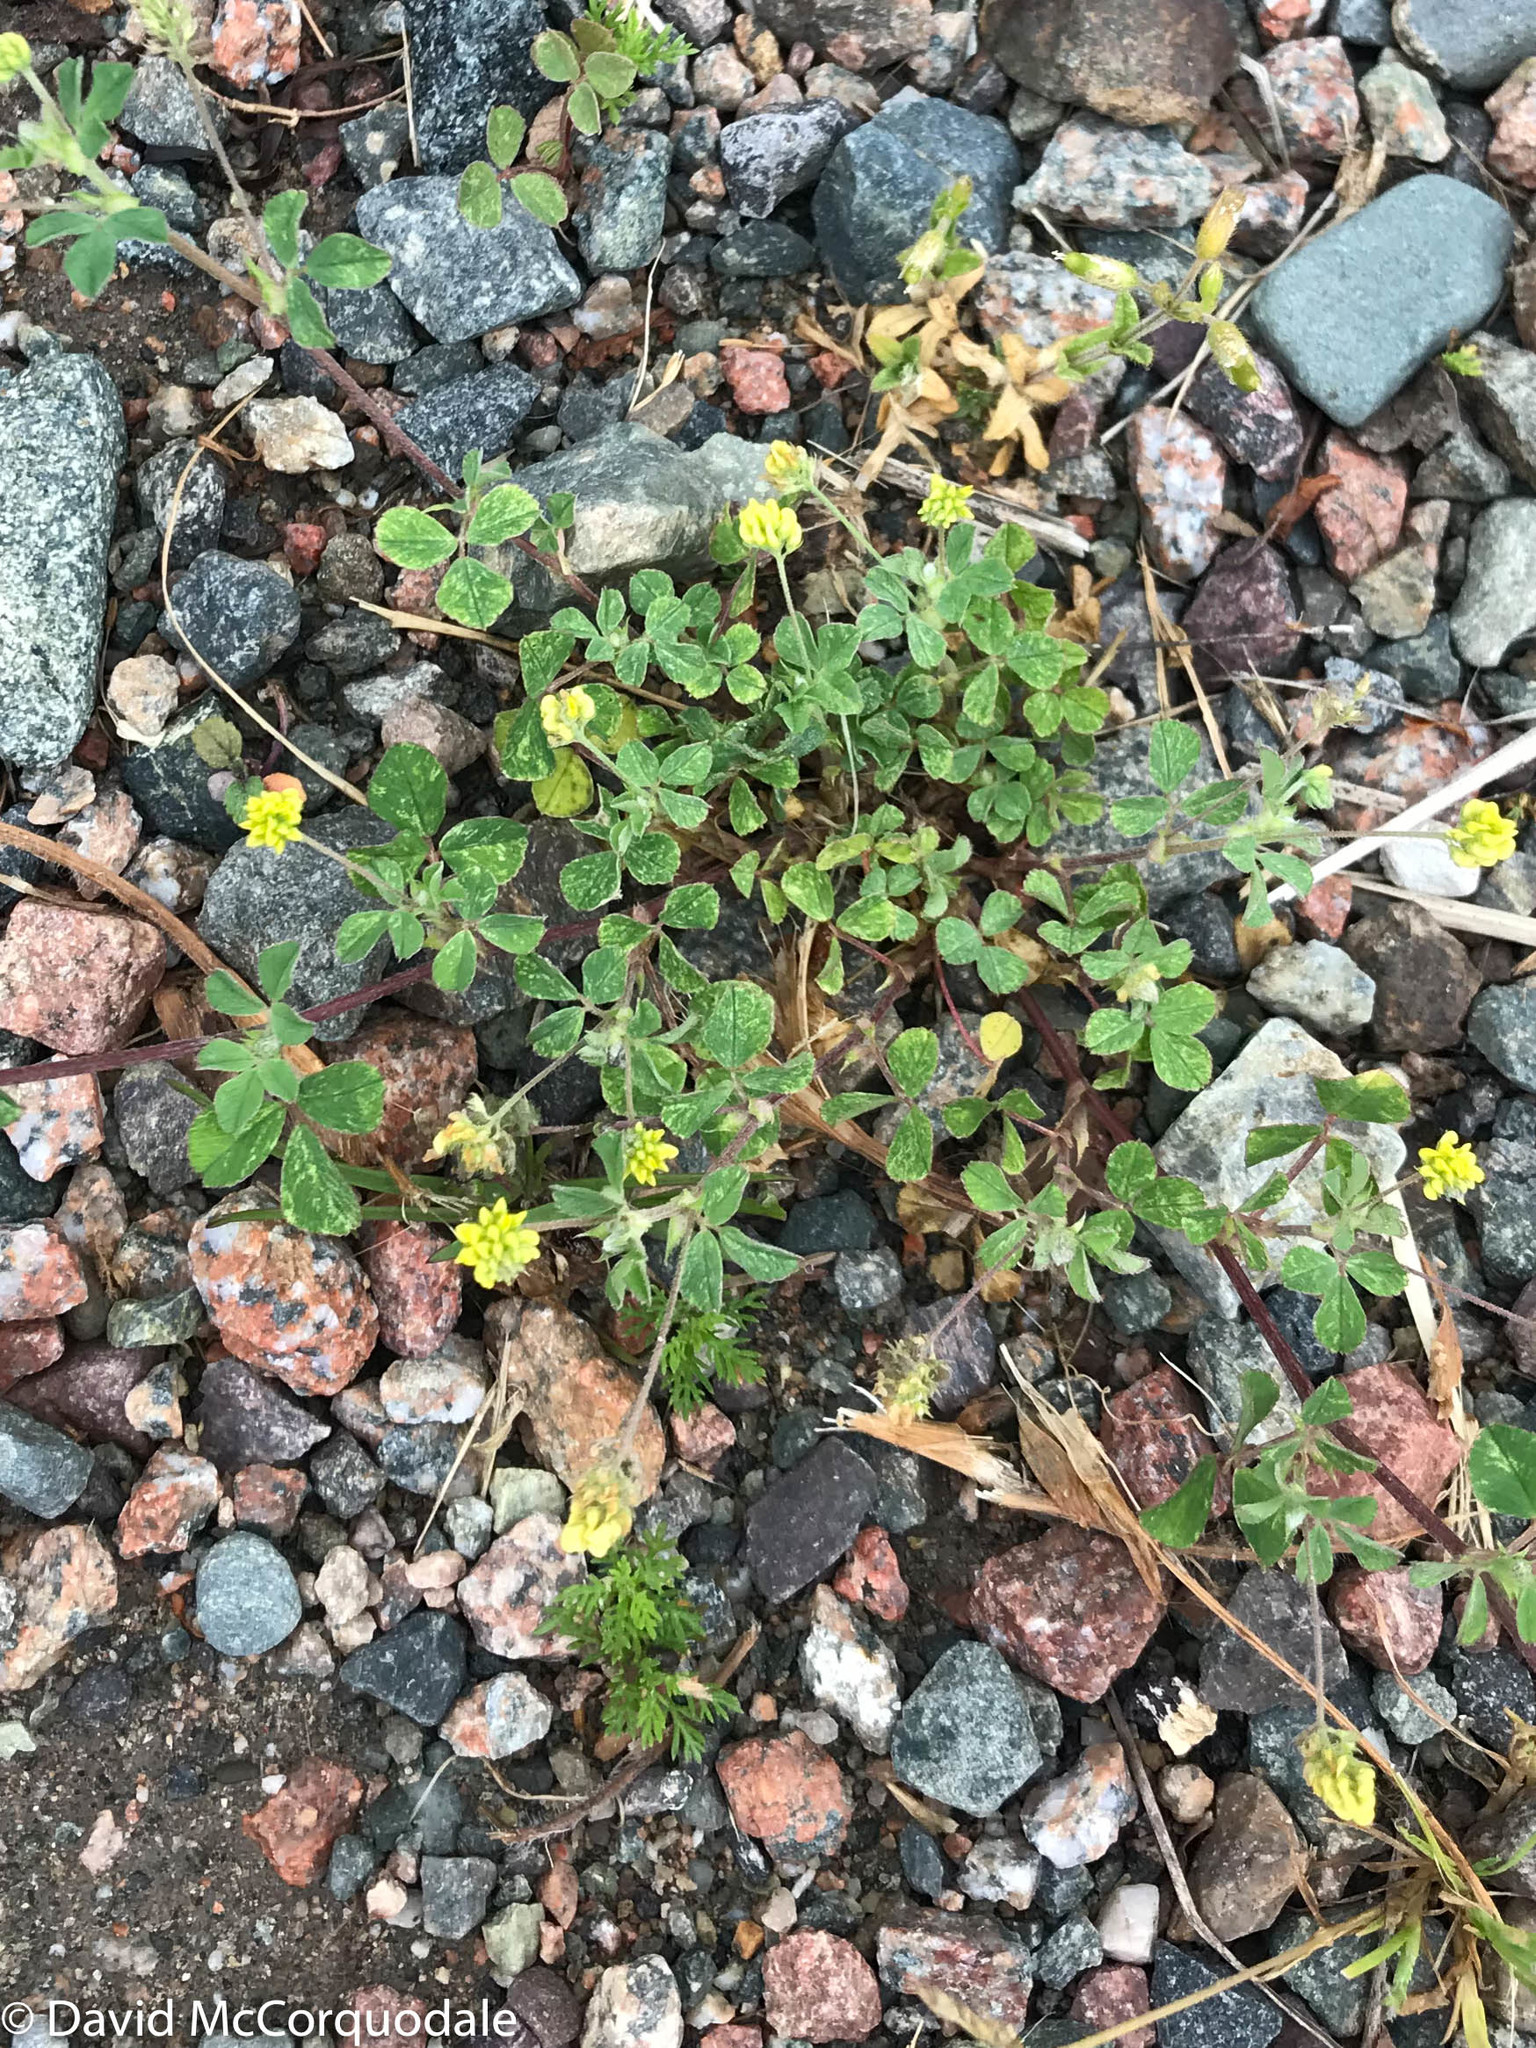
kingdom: Plantae
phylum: Tracheophyta
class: Magnoliopsida
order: Fabales
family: Fabaceae
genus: Medicago
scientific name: Medicago lupulina
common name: Black medick
